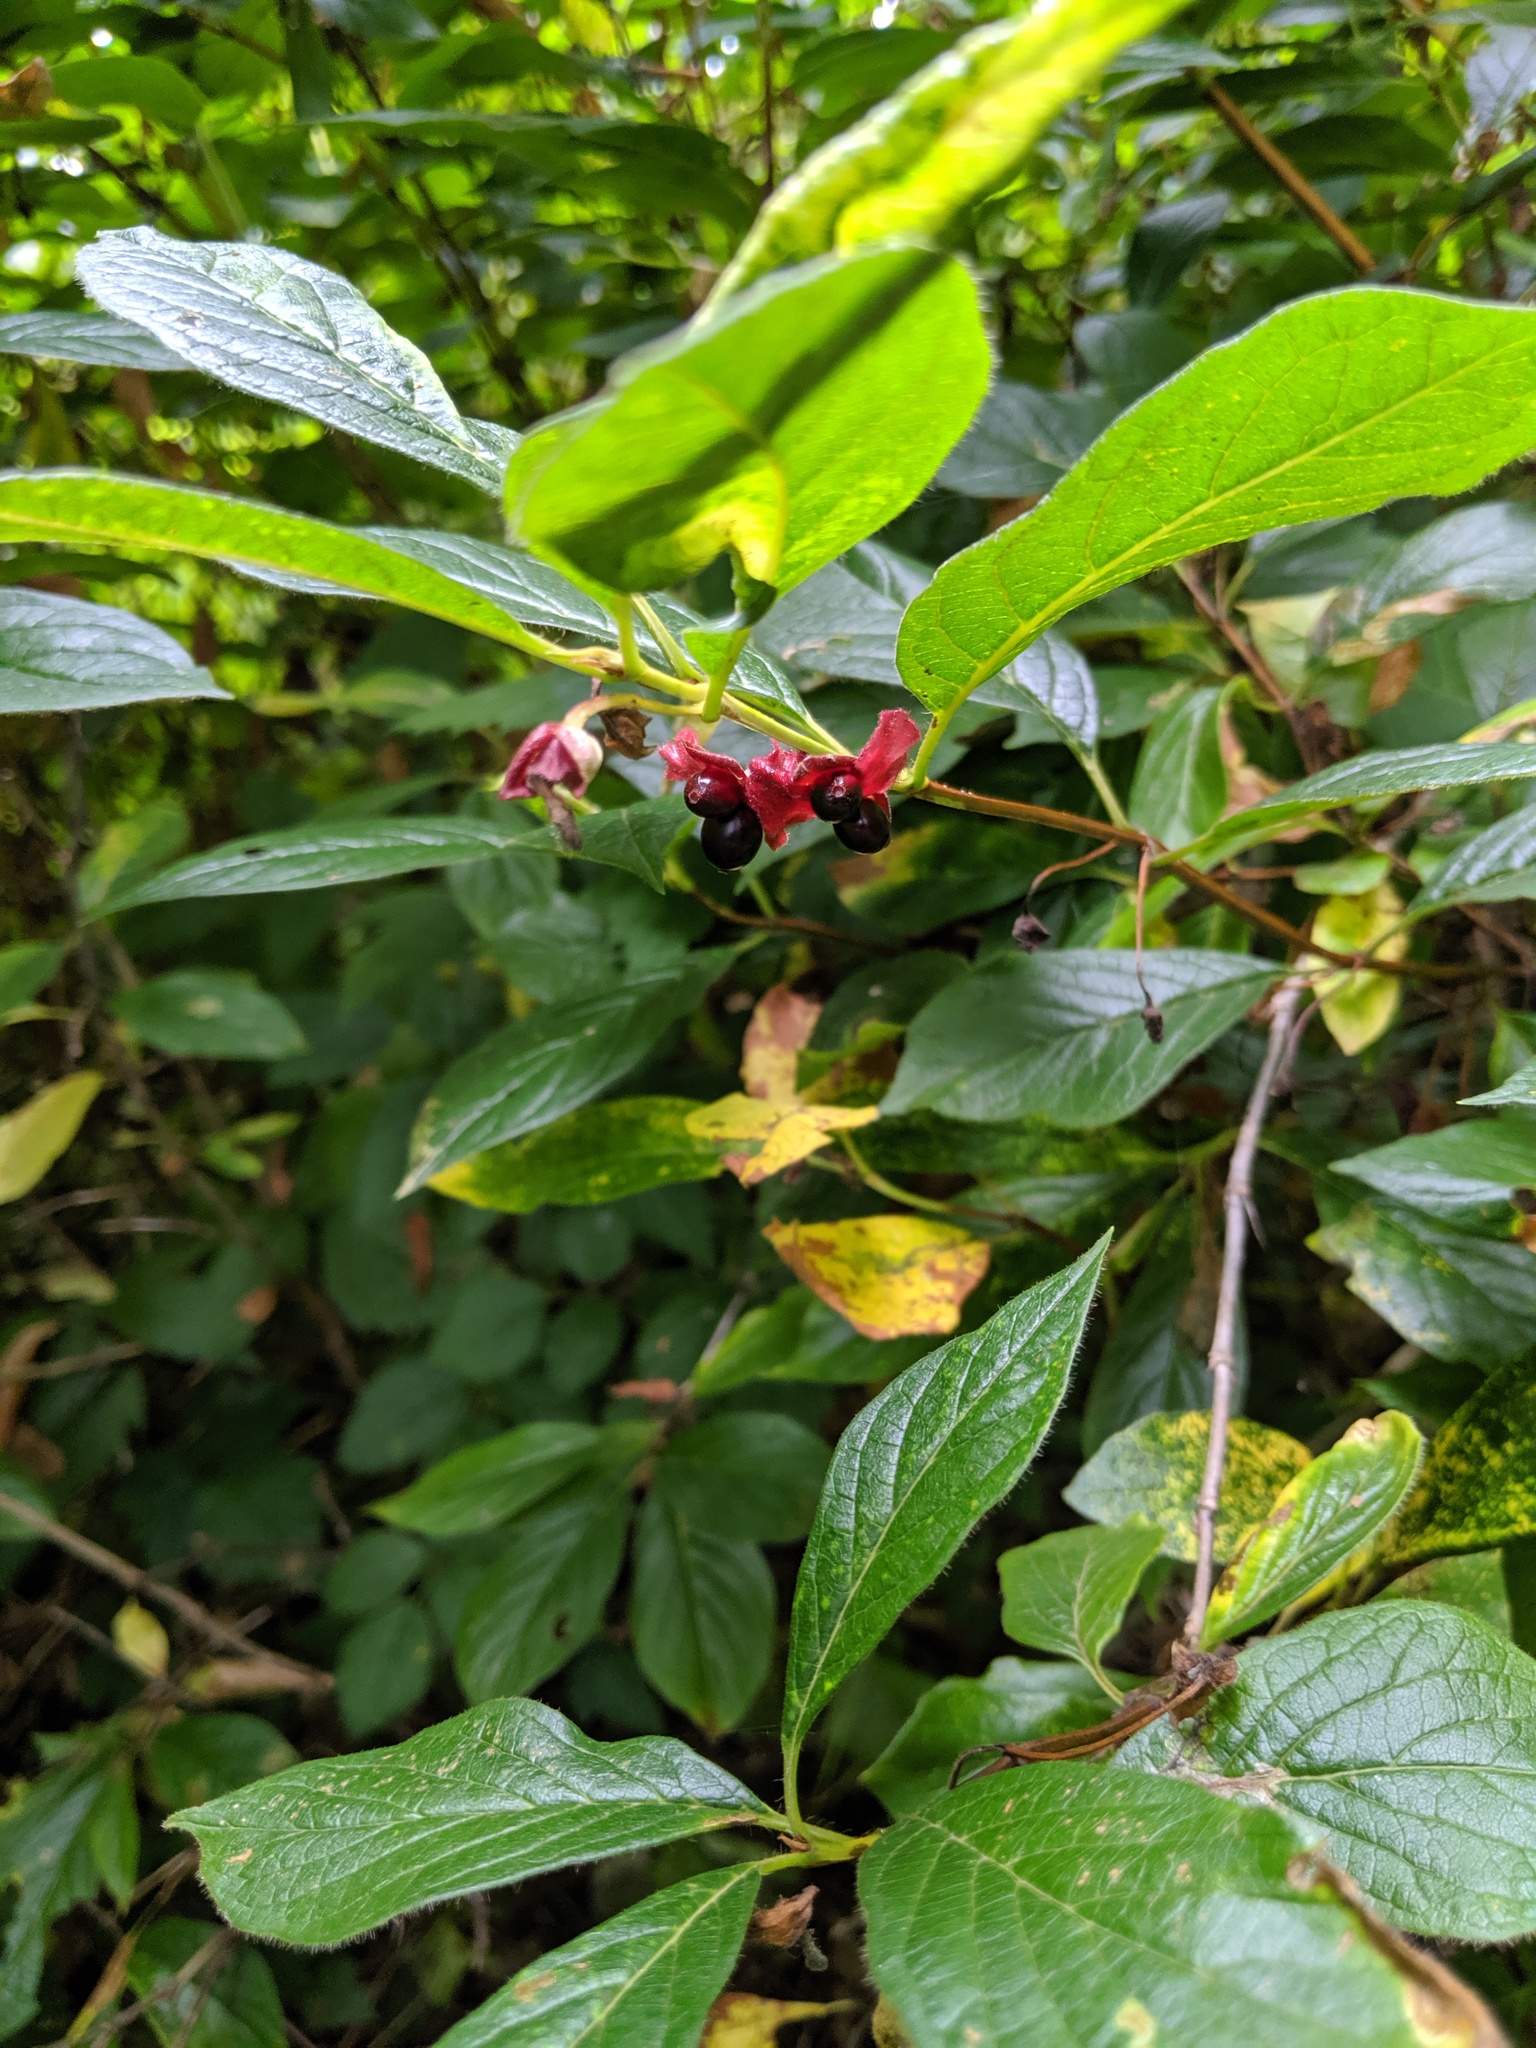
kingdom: Plantae
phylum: Tracheophyta
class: Magnoliopsida
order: Dipsacales
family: Caprifoliaceae
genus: Lonicera
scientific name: Lonicera involucrata
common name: Californian honeysuckle
